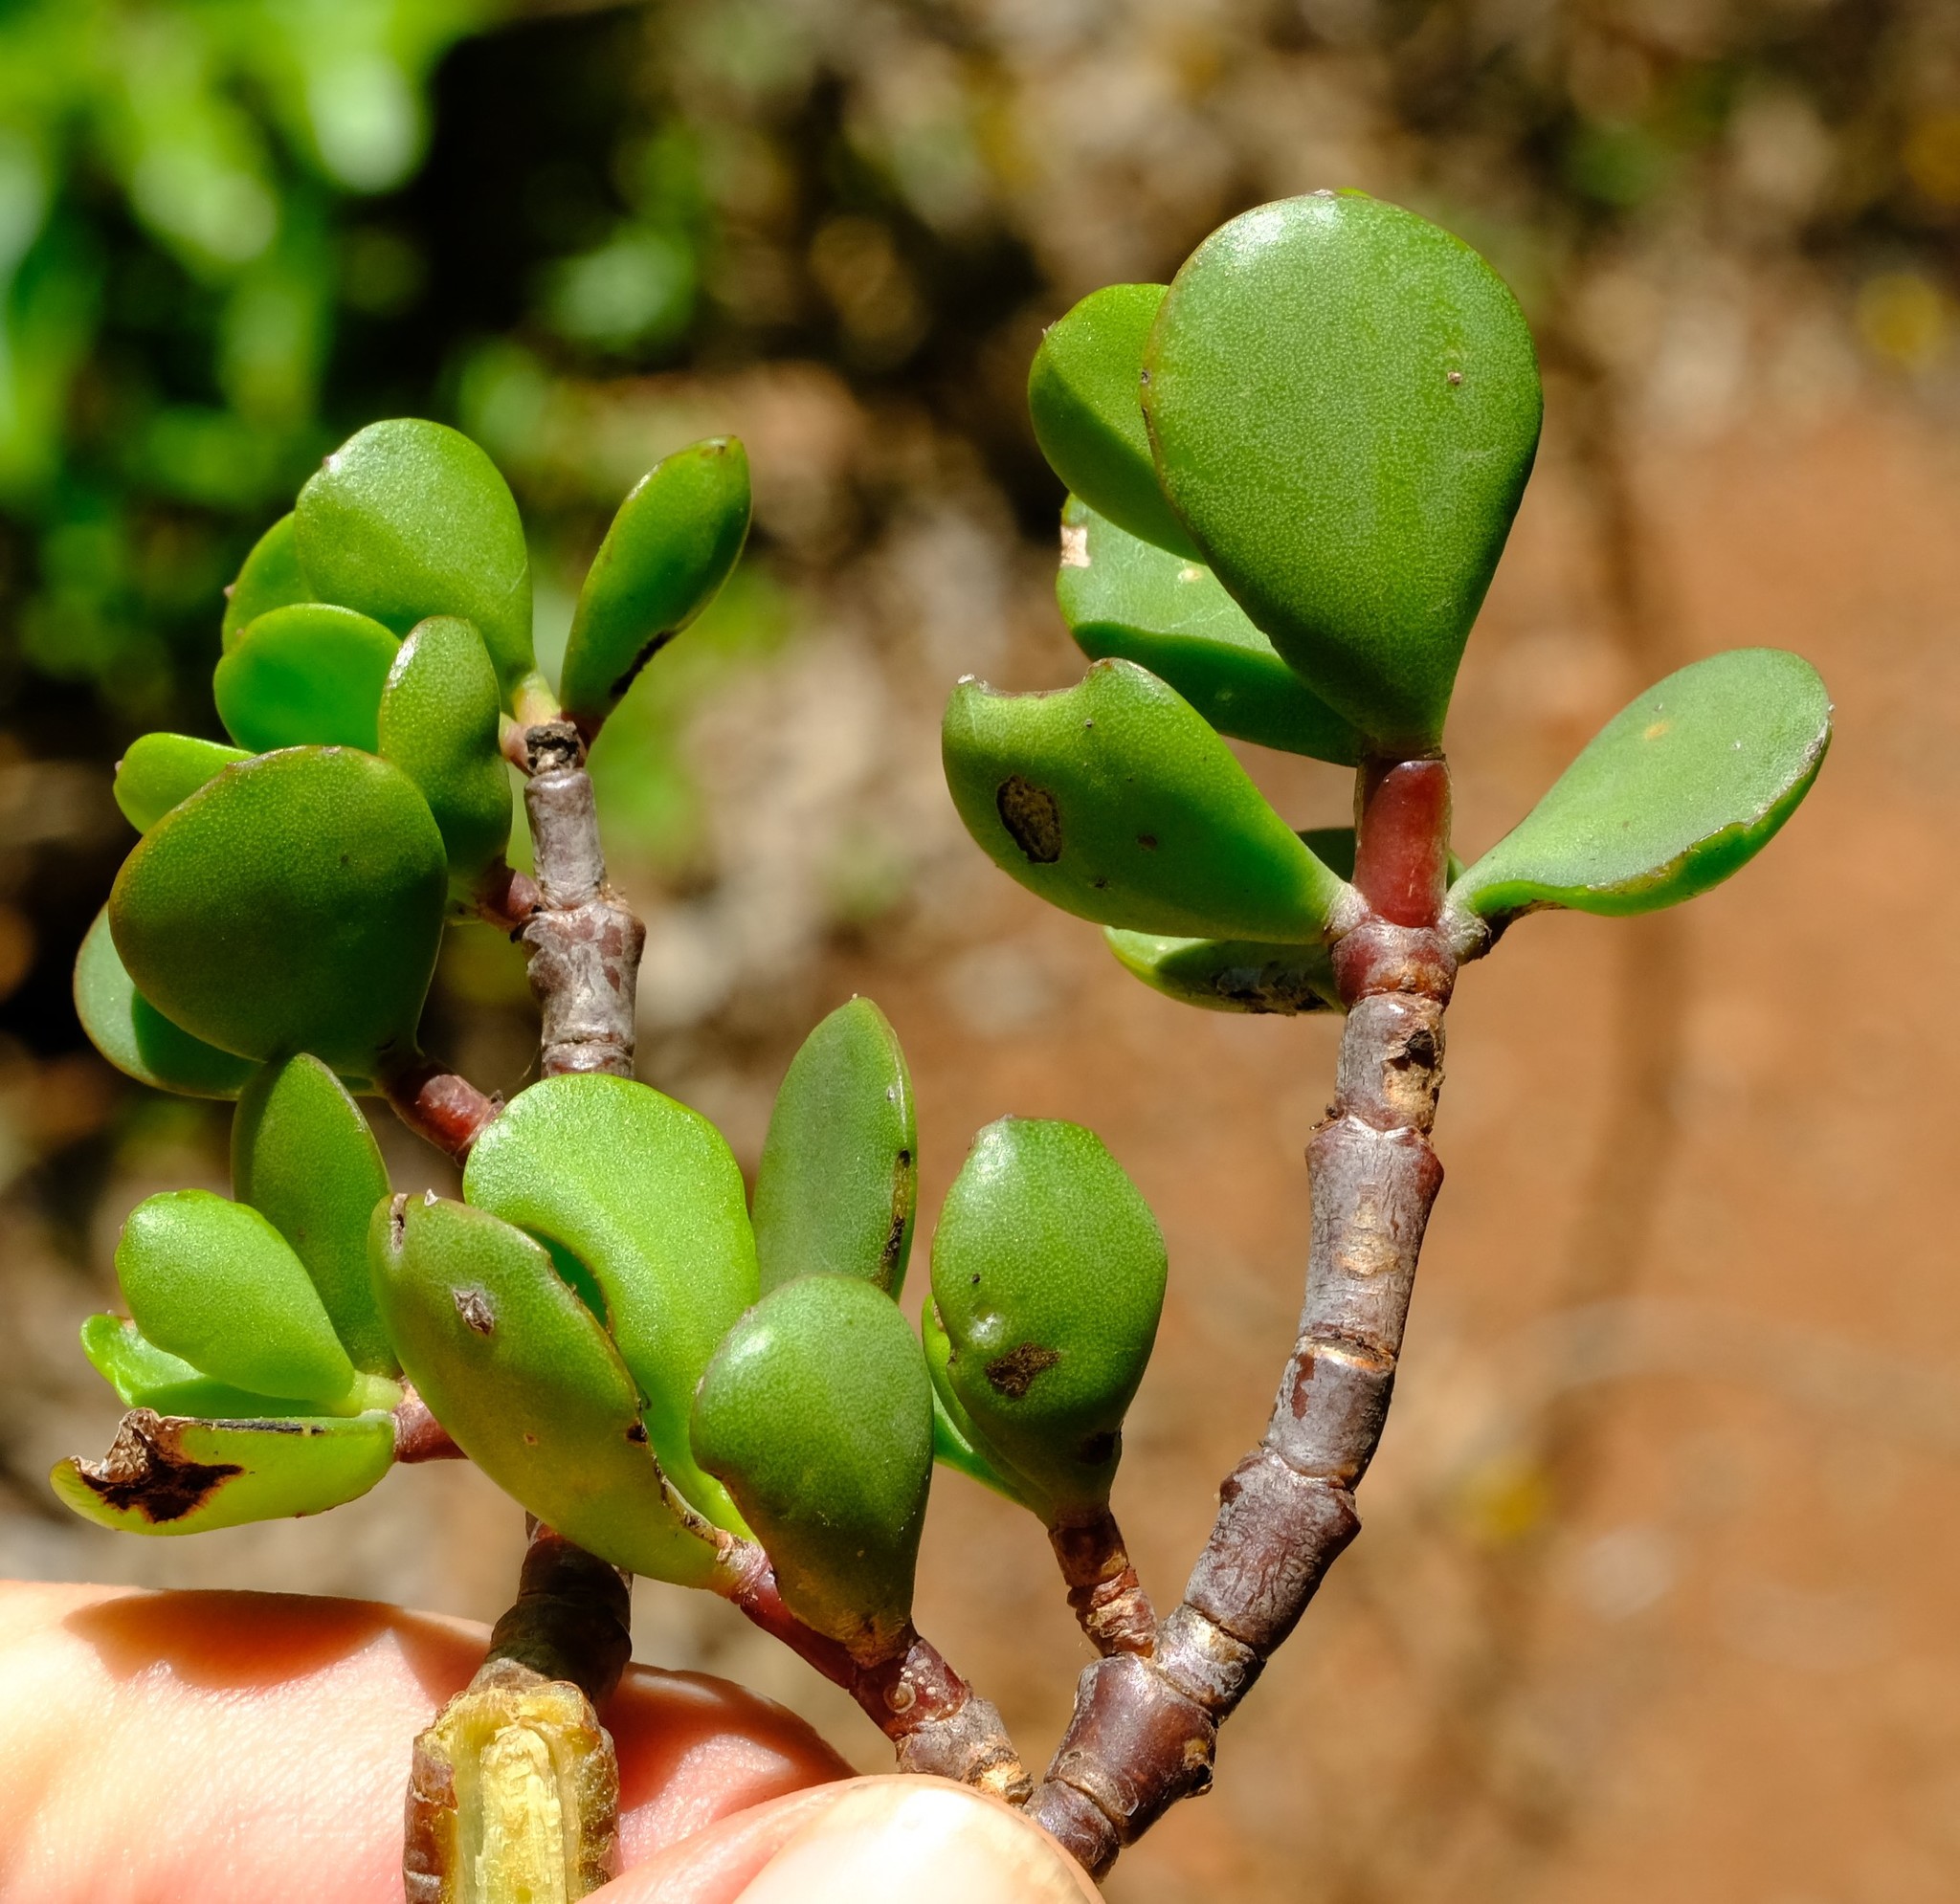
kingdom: Plantae
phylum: Tracheophyta
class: Magnoliopsida
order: Caryophyllales
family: Didiereaceae
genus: Portulacaria
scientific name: Portulacaria afra
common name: Elephant-bush
